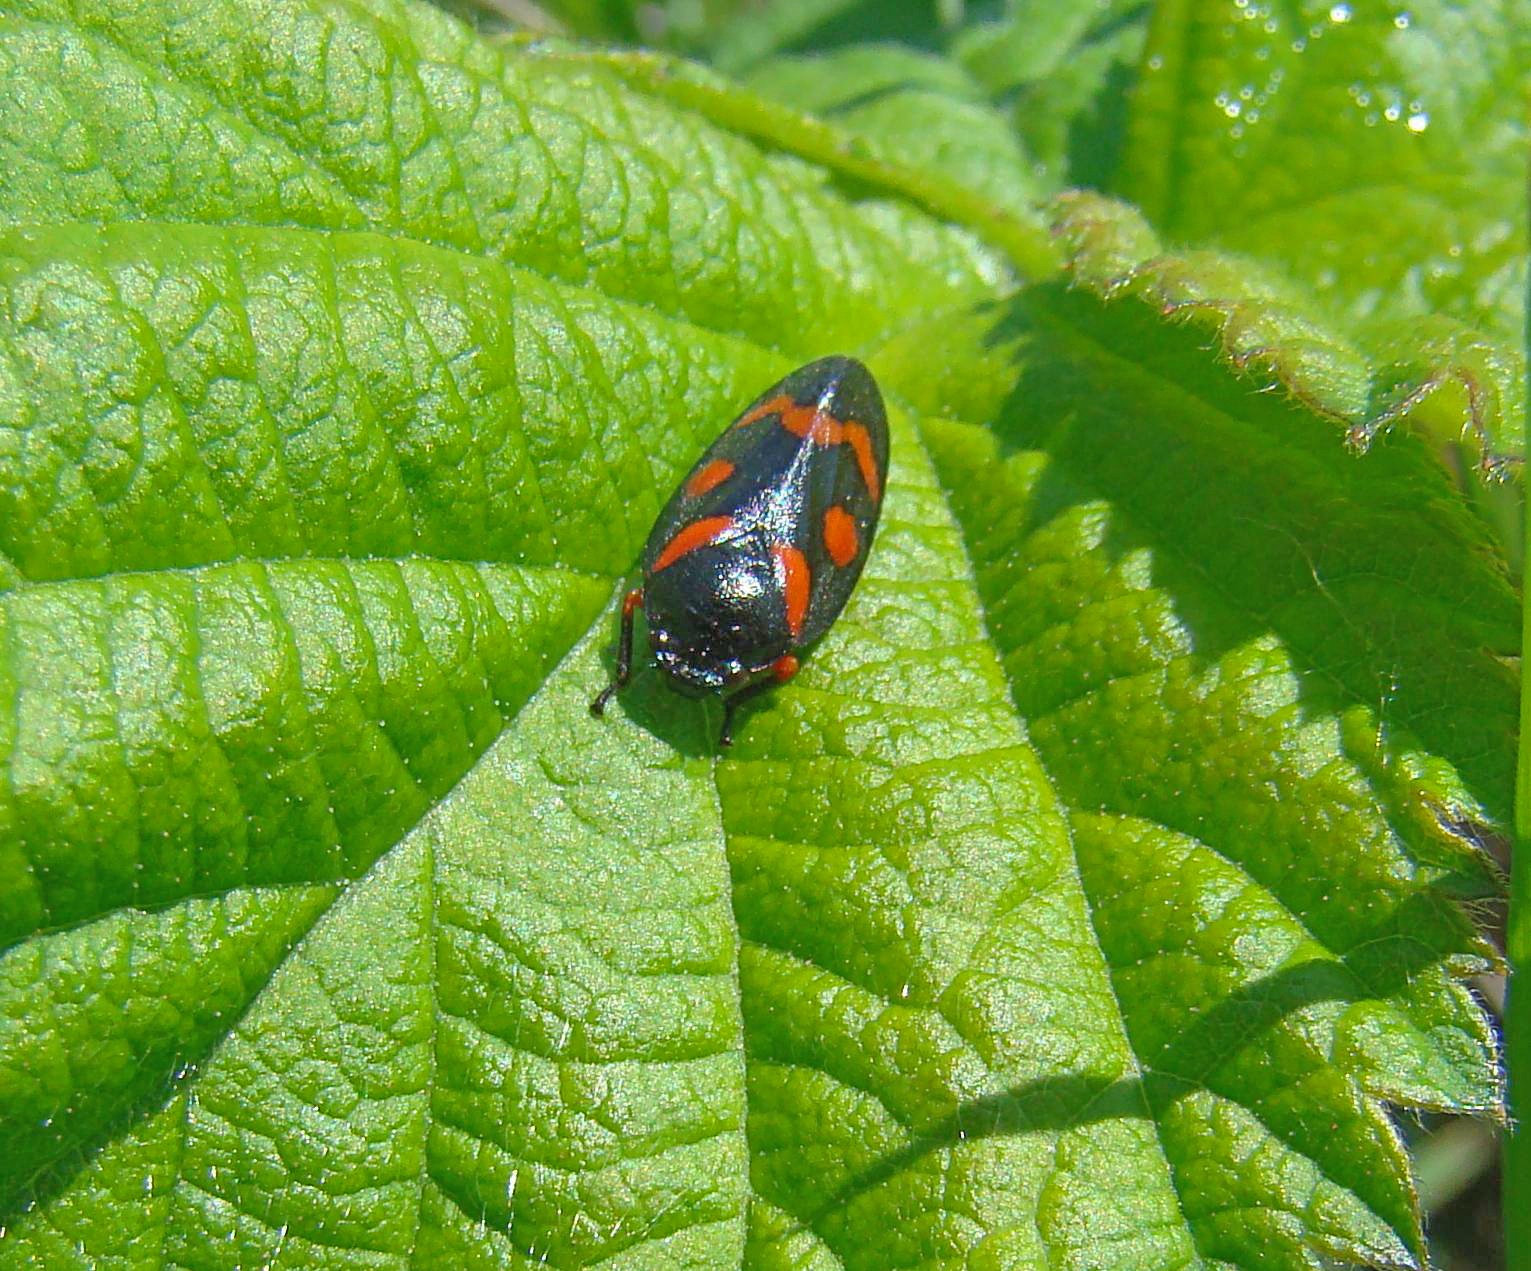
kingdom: Animalia
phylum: Arthropoda
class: Insecta
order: Hemiptera
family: Cercopidae
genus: Cercopis
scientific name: Cercopis intermedia
